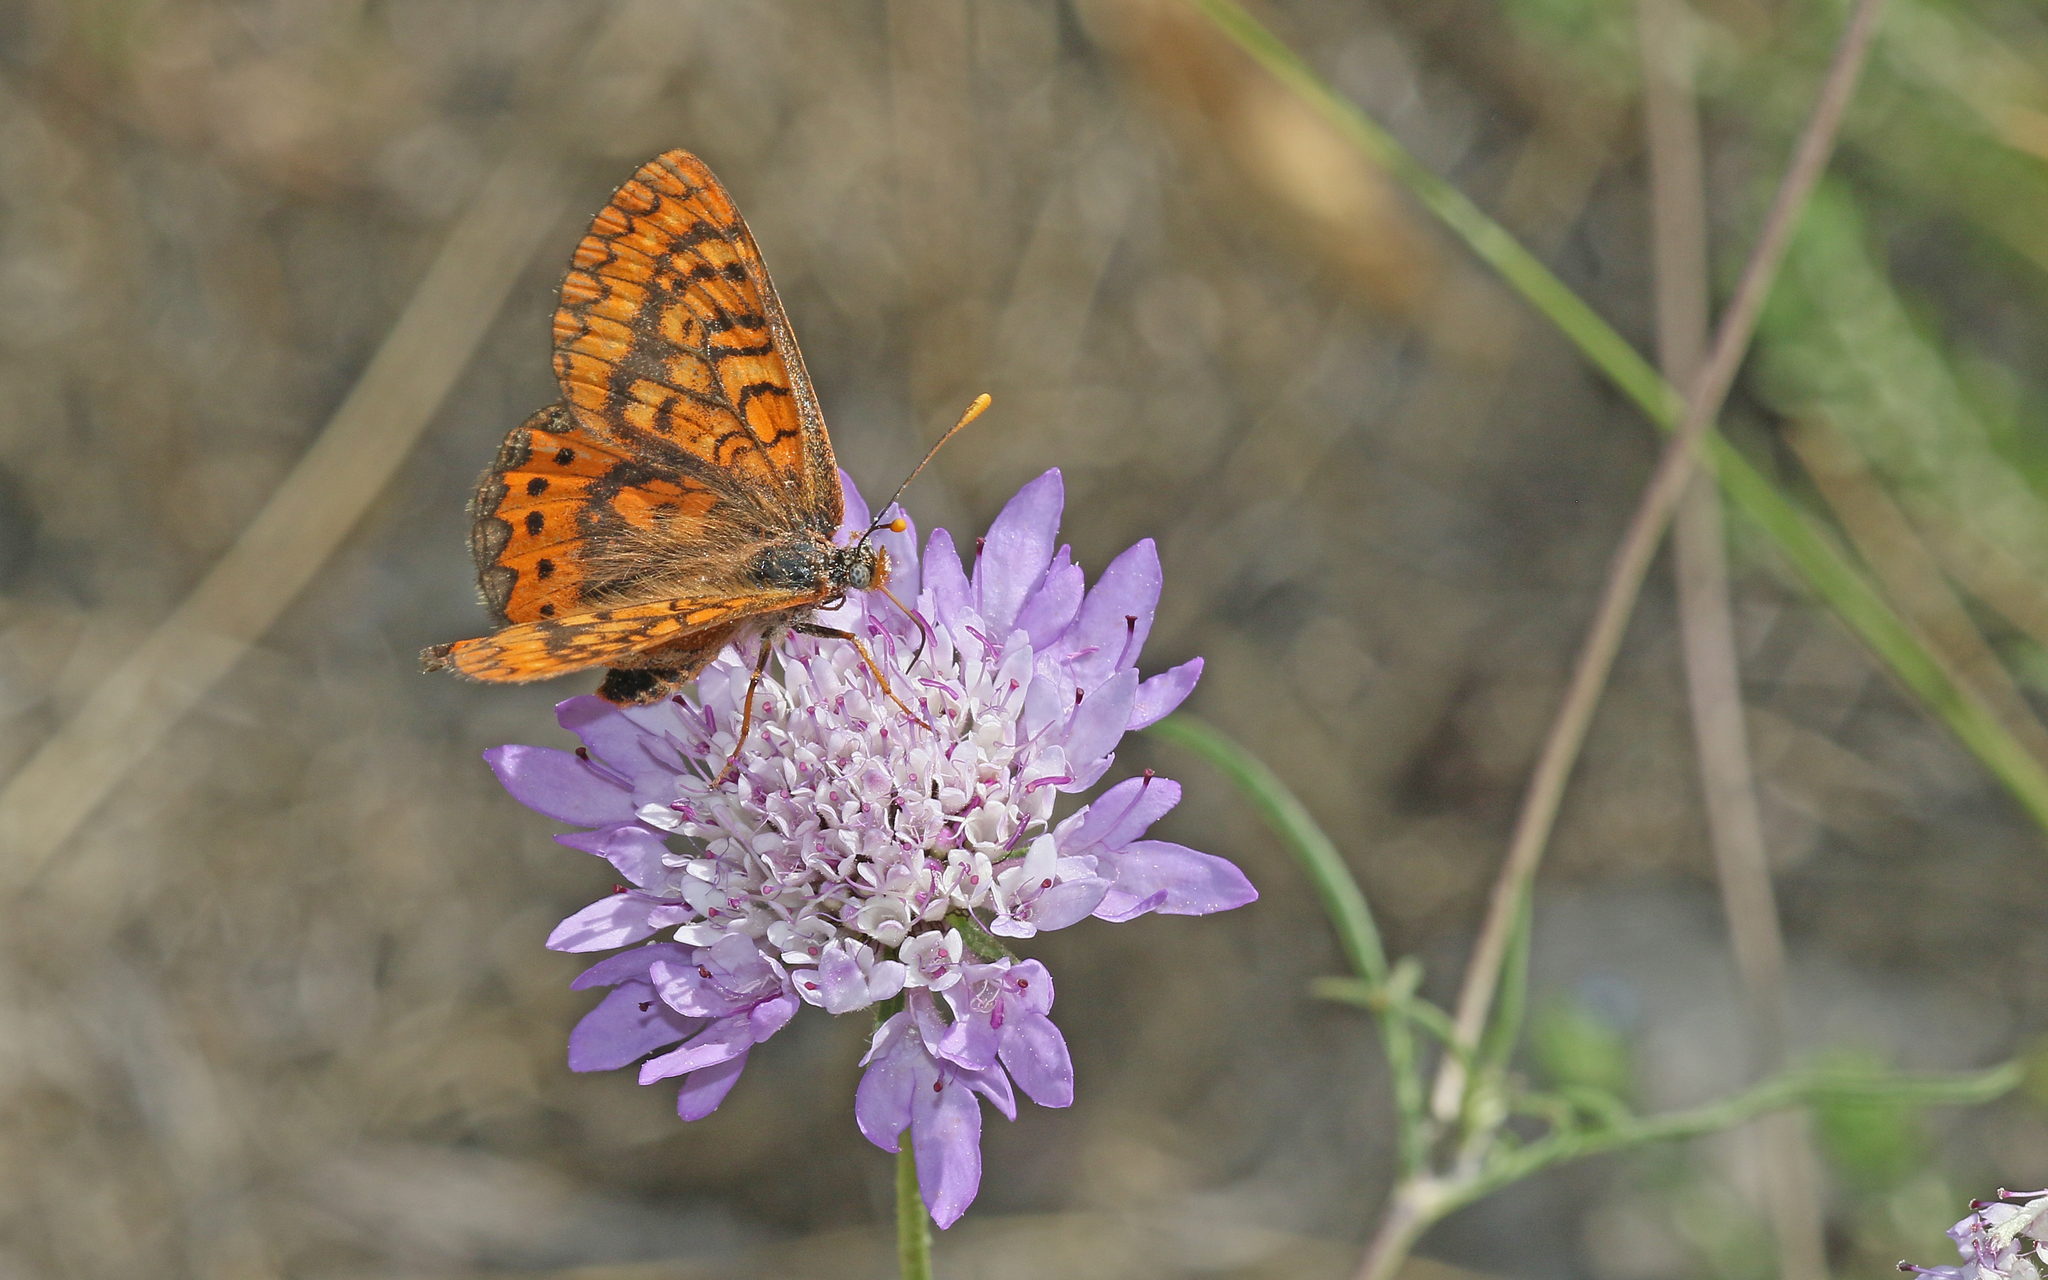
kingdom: Animalia
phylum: Arthropoda
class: Insecta
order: Lepidoptera
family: Nymphalidae
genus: Euphydryas
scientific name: Euphydryas aurinia
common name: Marsh fritillary
